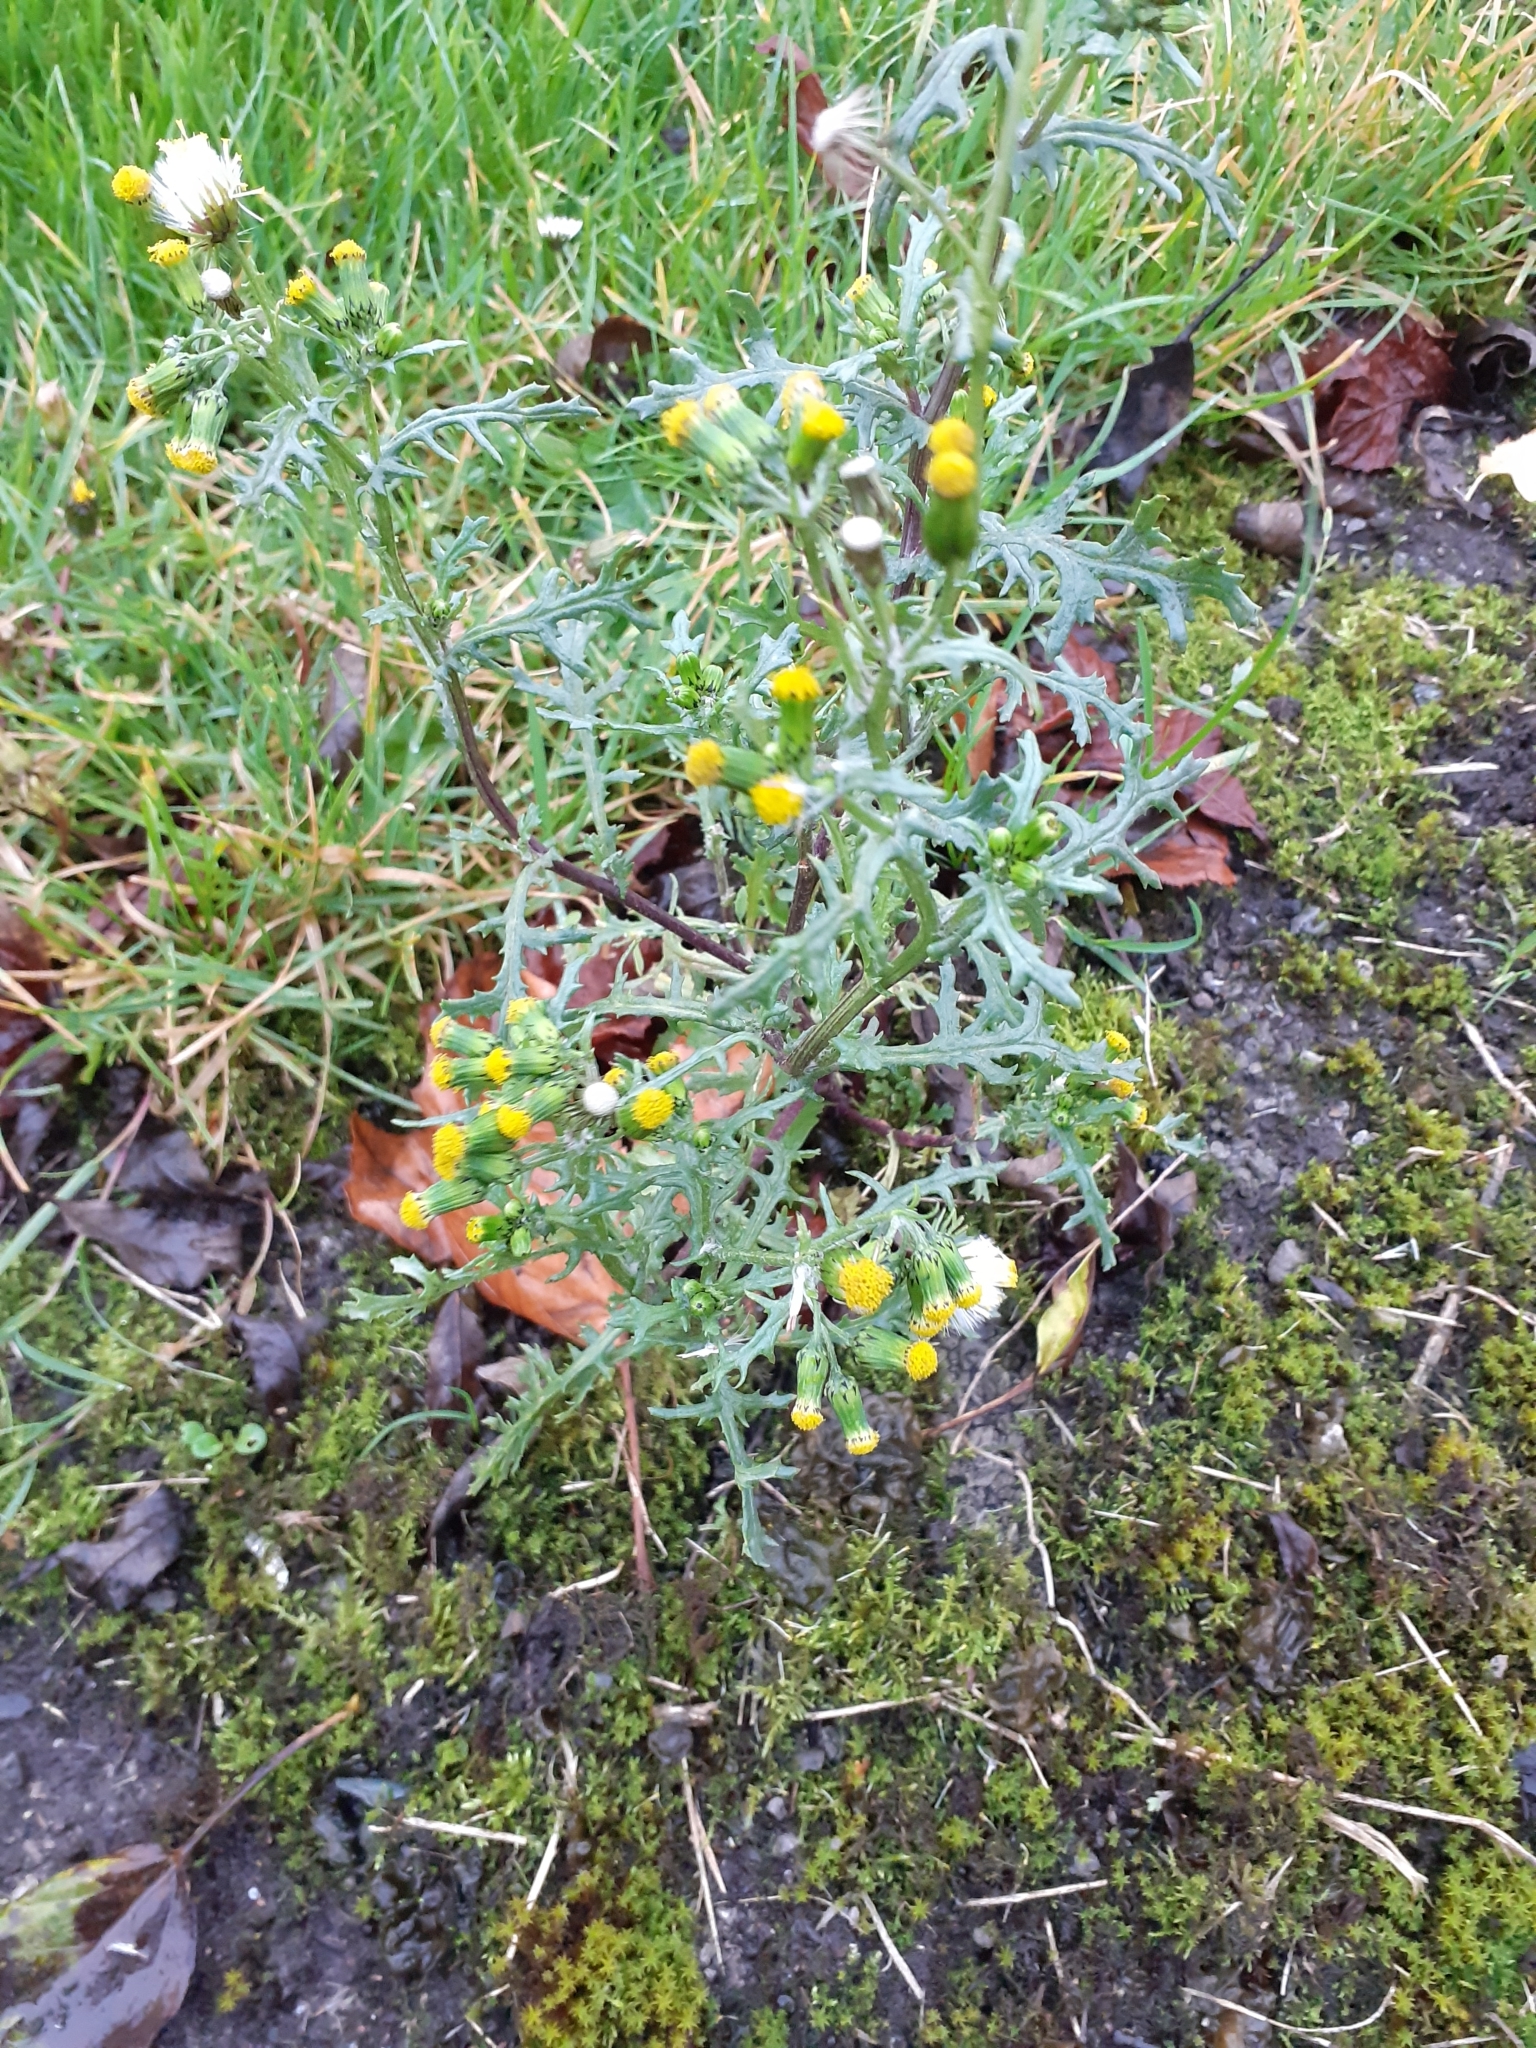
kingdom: Plantae
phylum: Tracheophyta
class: Magnoliopsida
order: Asterales
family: Asteraceae
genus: Senecio
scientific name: Senecio vulgaris
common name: Old-man-in-the-spring
